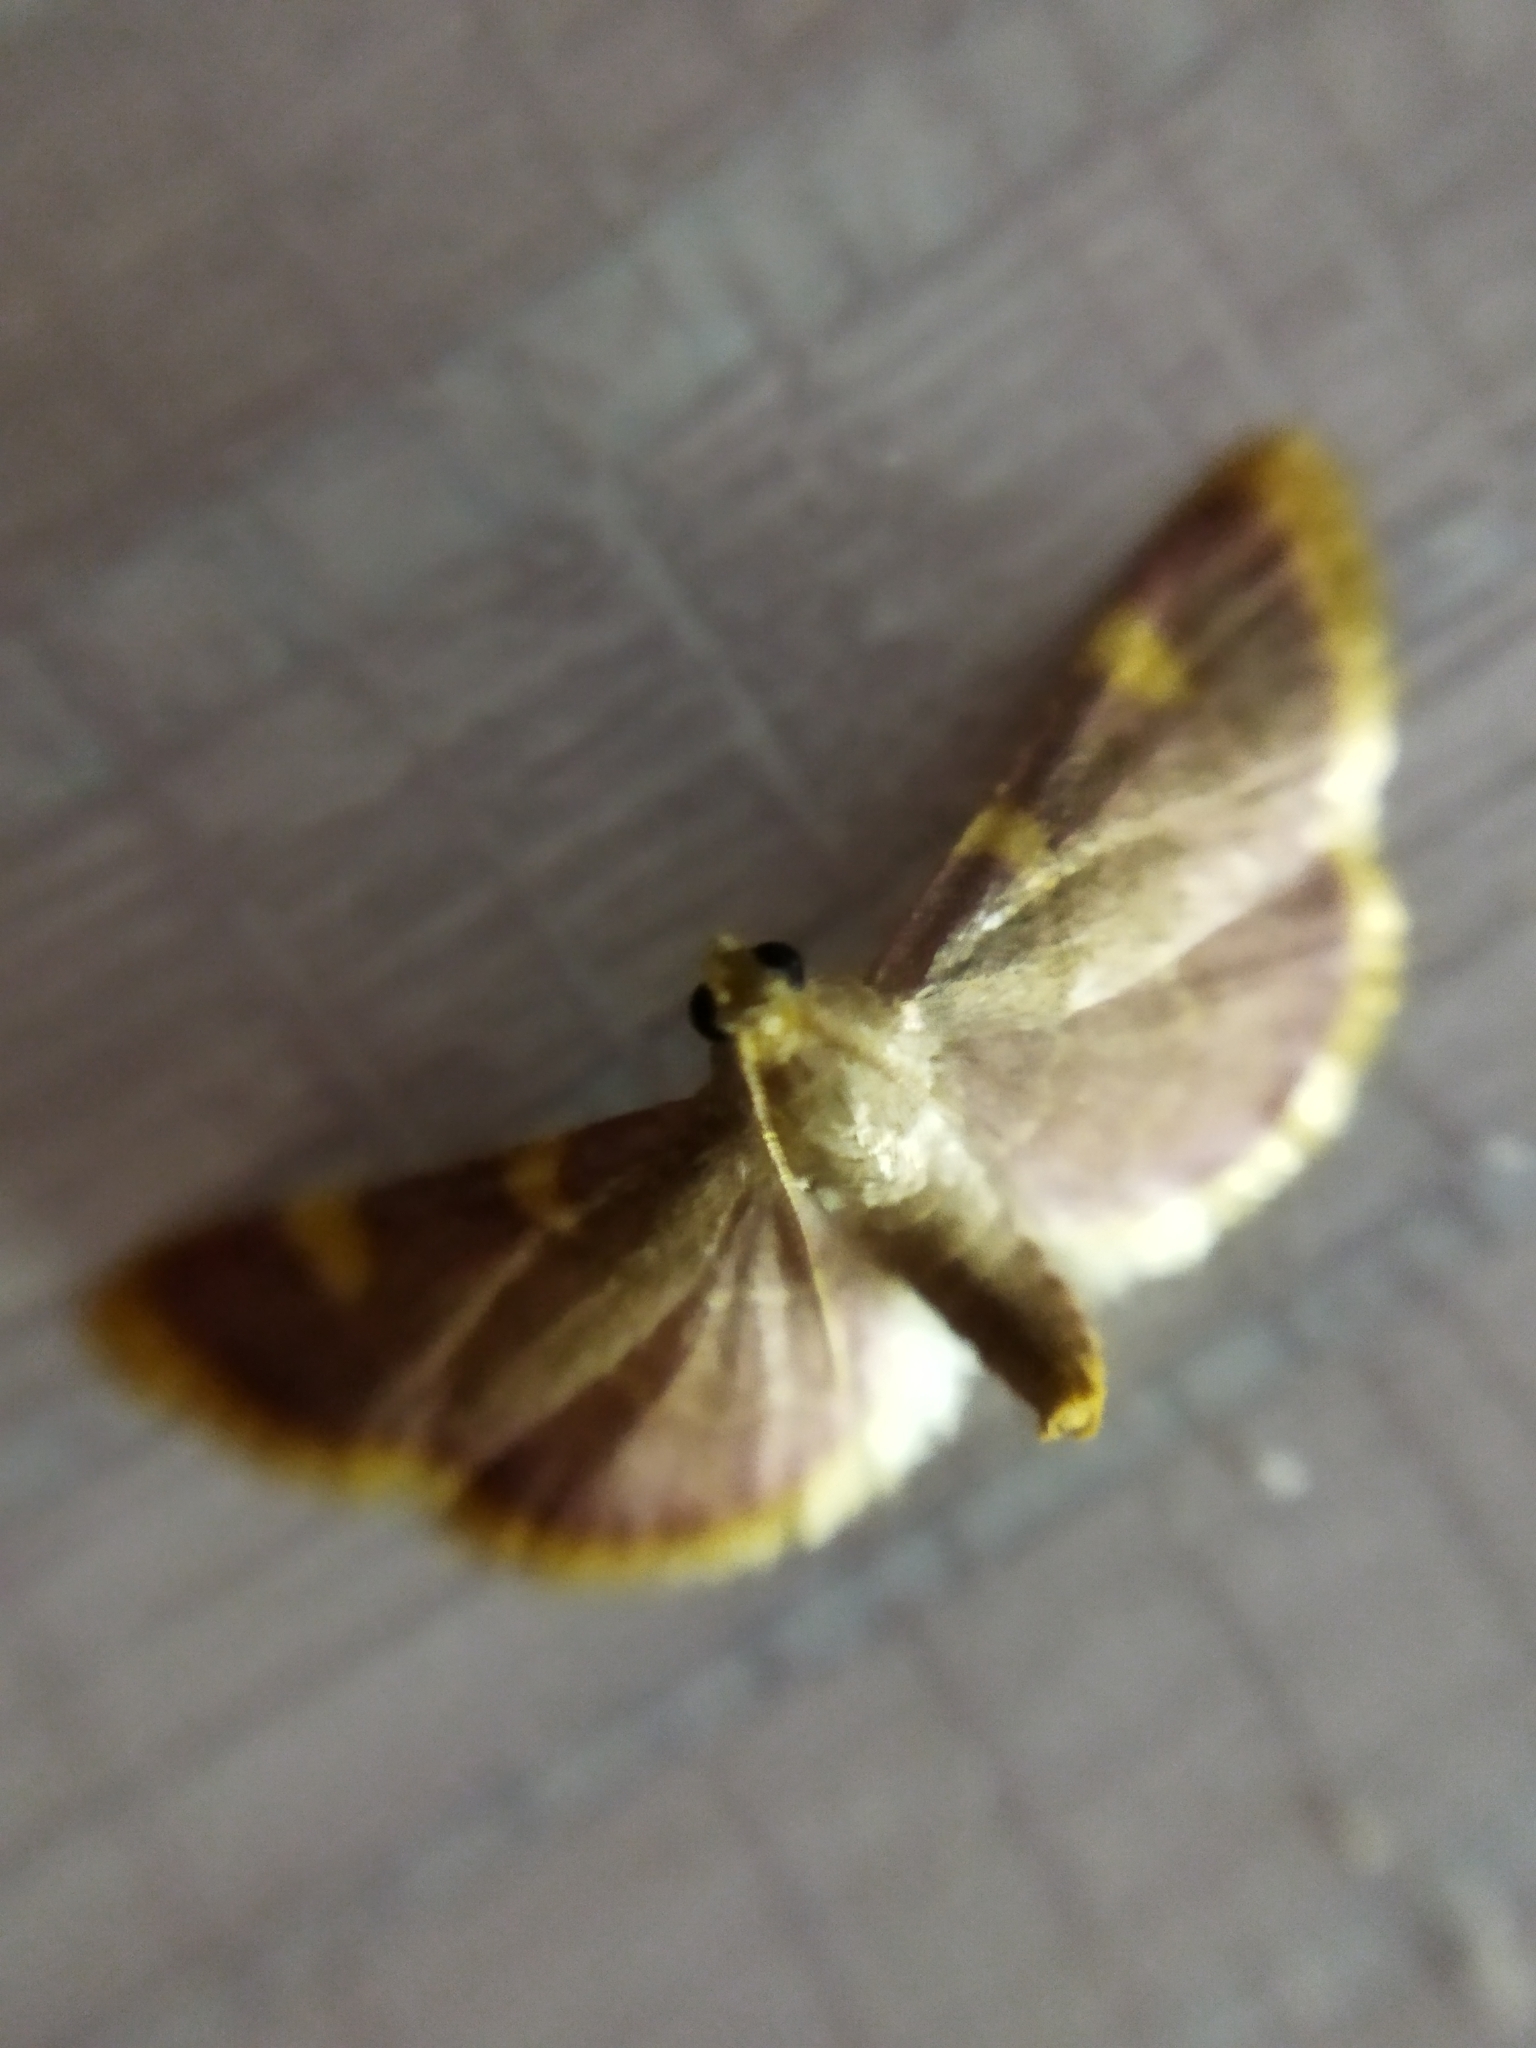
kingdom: Animalia
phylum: Arthropoda
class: Insecta
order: Lepidoptera
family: Pyralidae
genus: Hypsopygia
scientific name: Hypsopygia costalis
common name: Gold triangle
